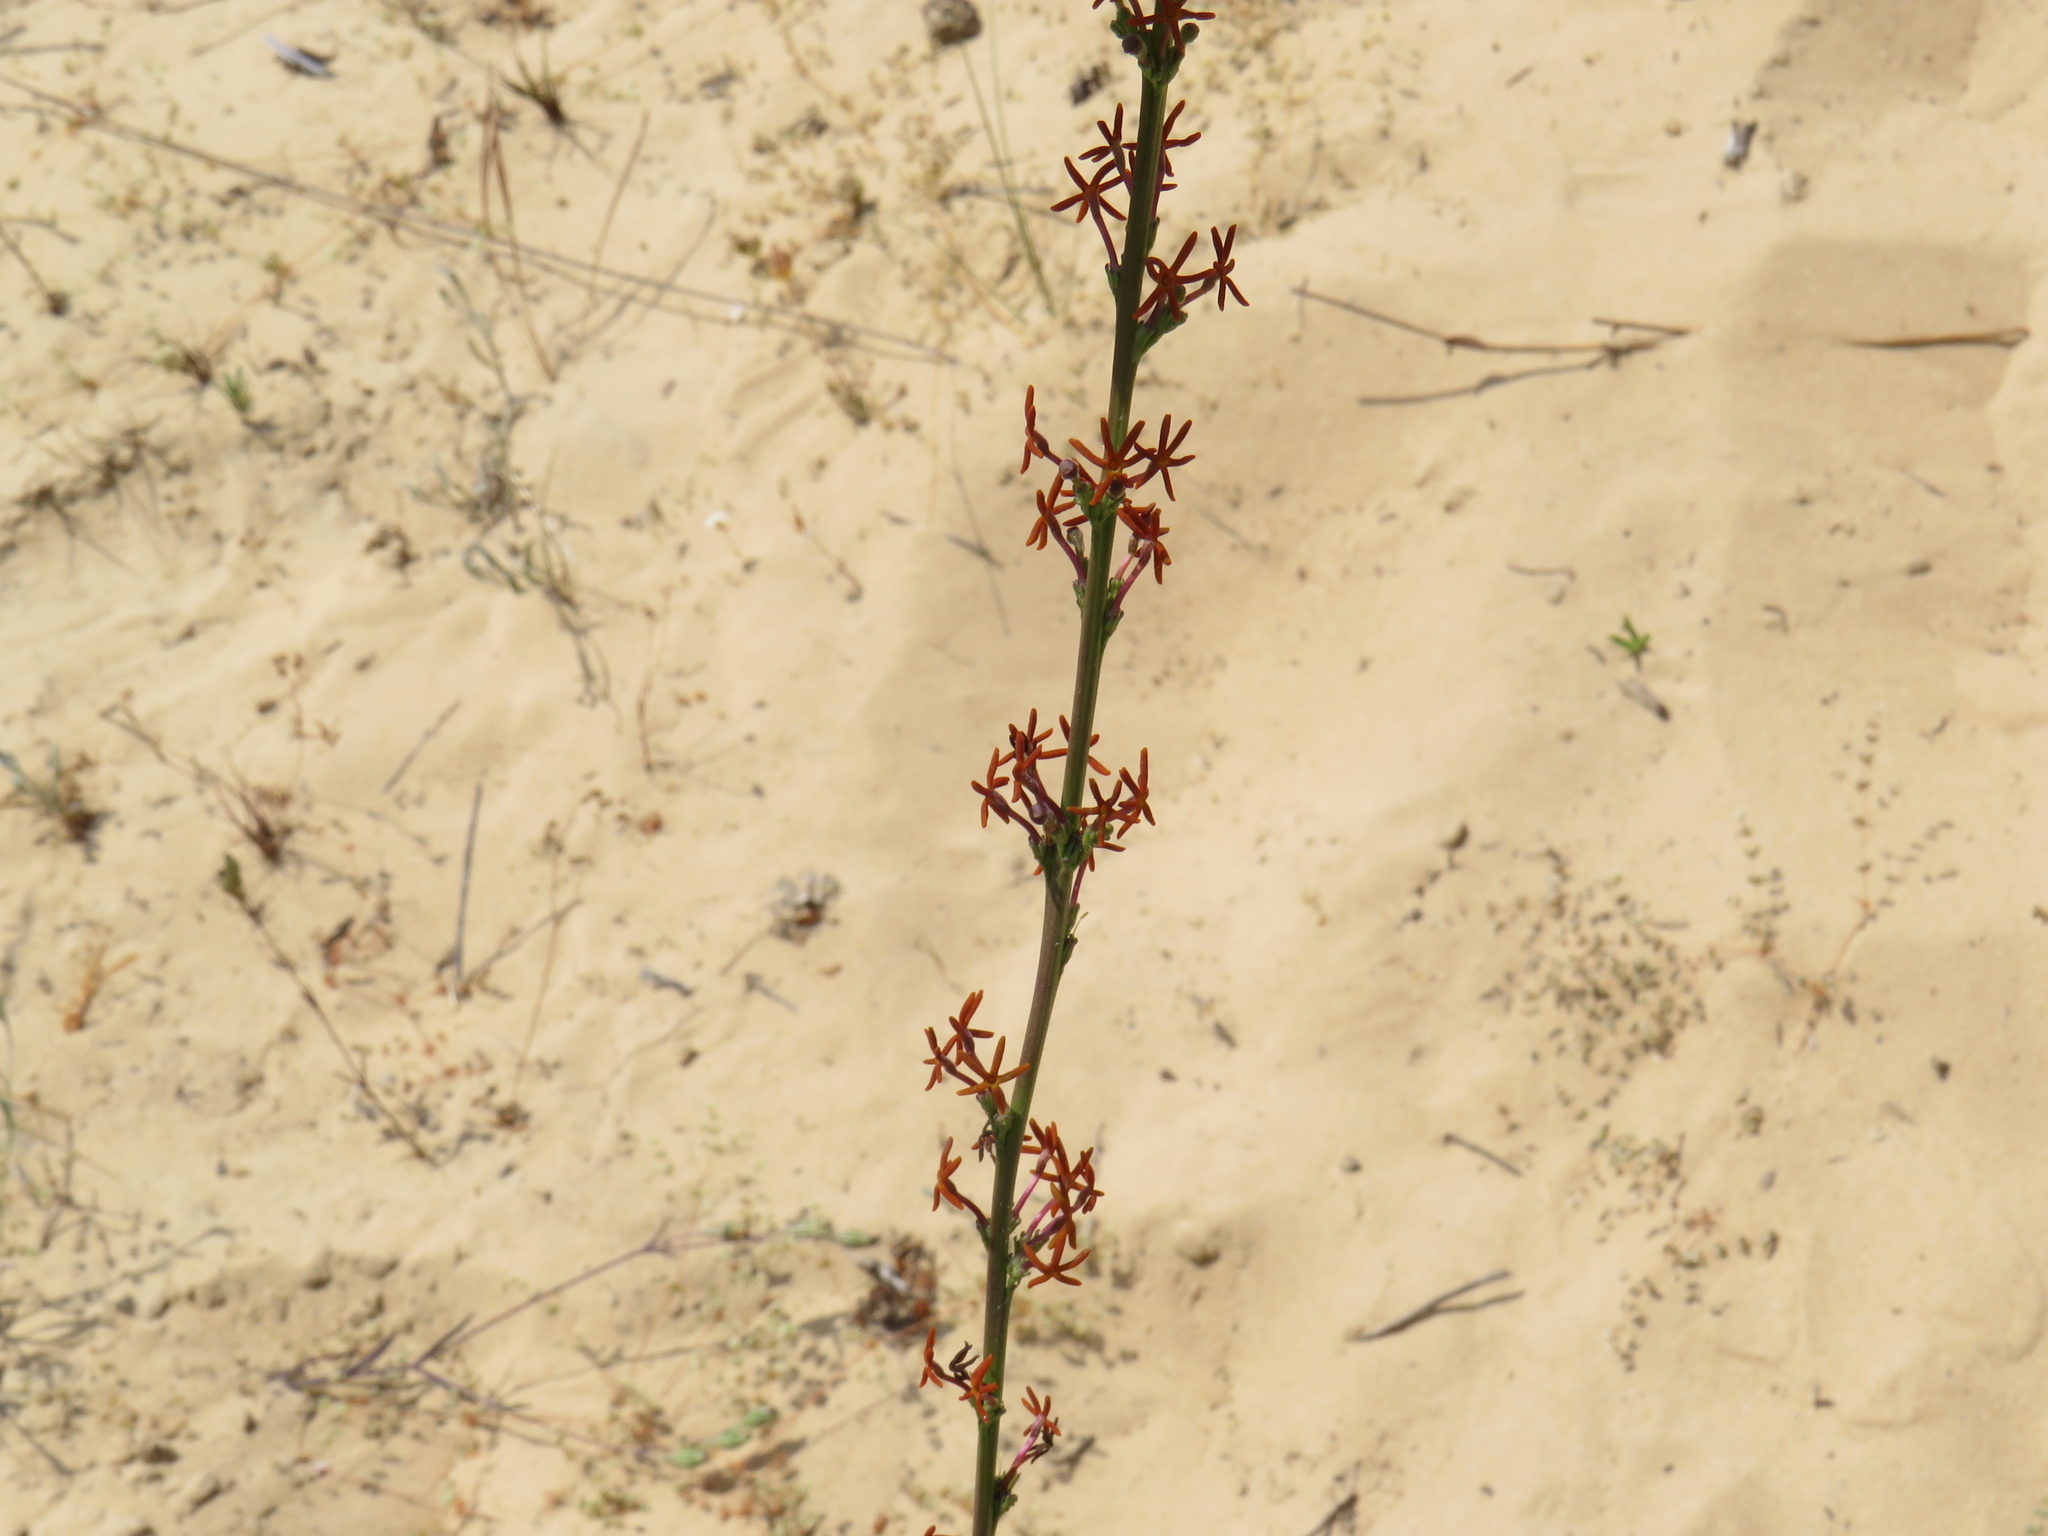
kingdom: Plantae
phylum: Tracheophyta
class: Magnoliopsida
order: Lamiales
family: Scrophulariaceae
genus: Manulea
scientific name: Manulea rubra
